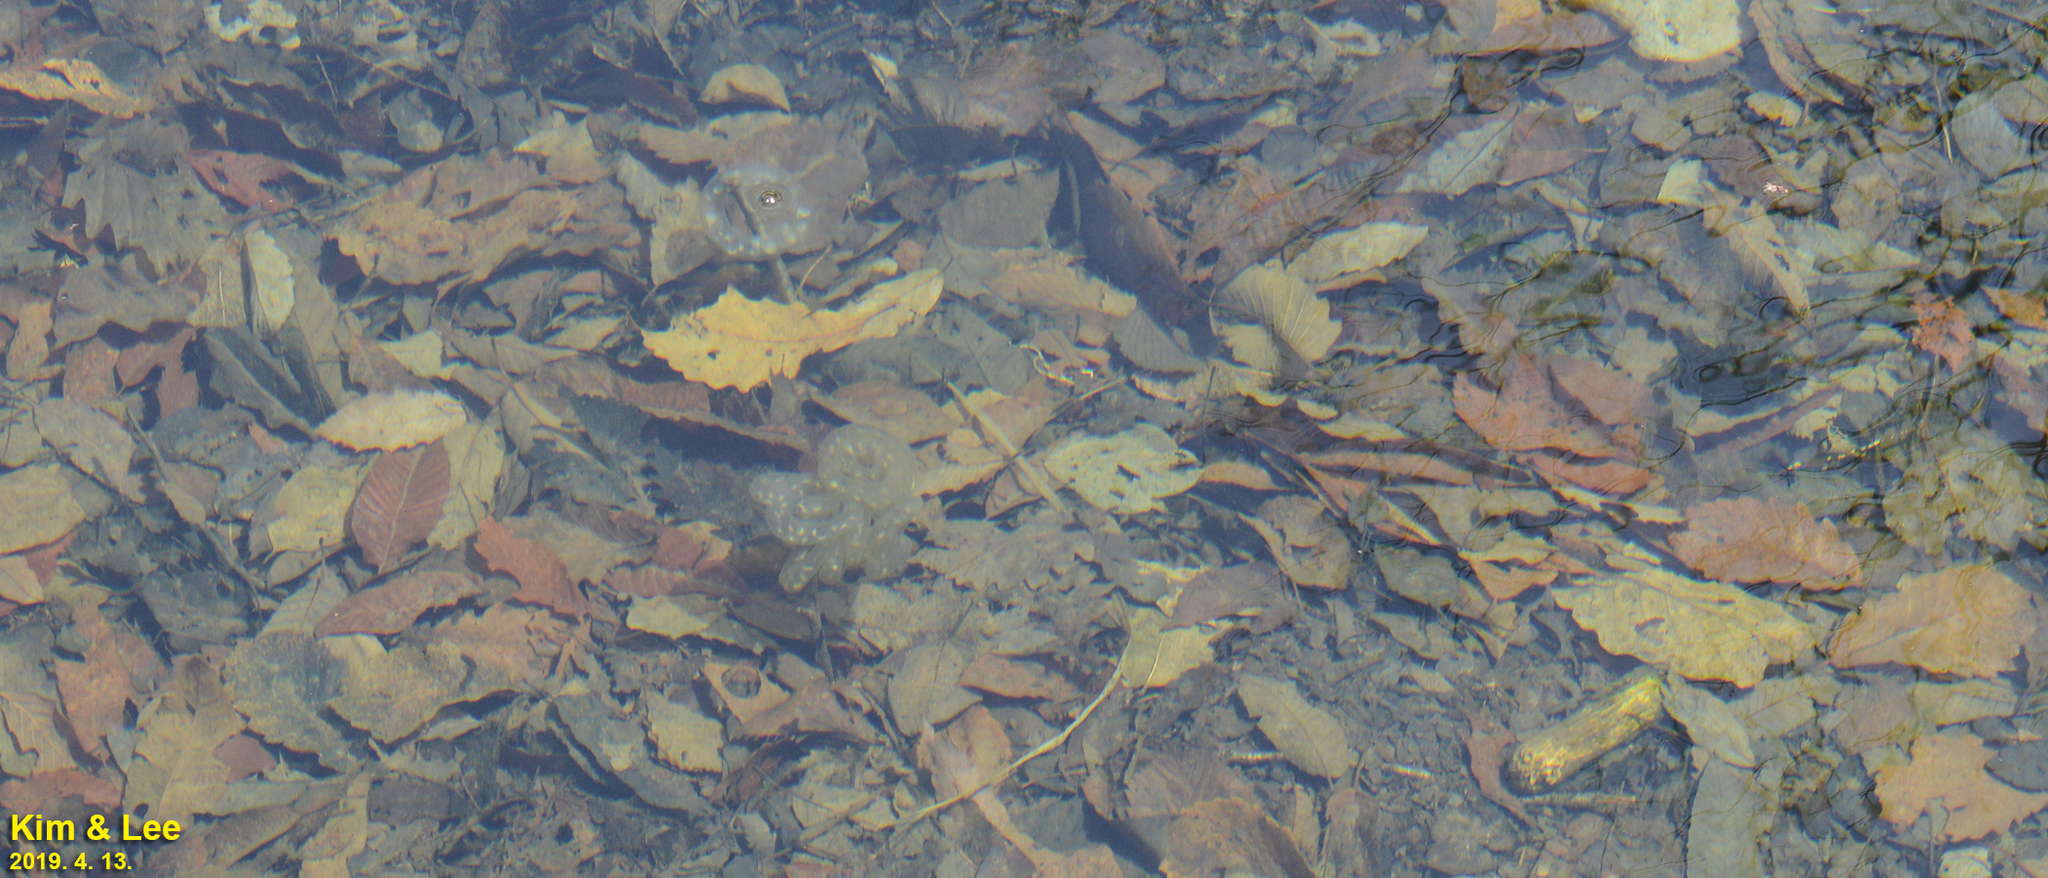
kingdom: Animalia
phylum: Chordata
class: Amphibia
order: Caudata
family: Hynobiidae
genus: Hynobius
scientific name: Hynobius leechii
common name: Gensan salamander
